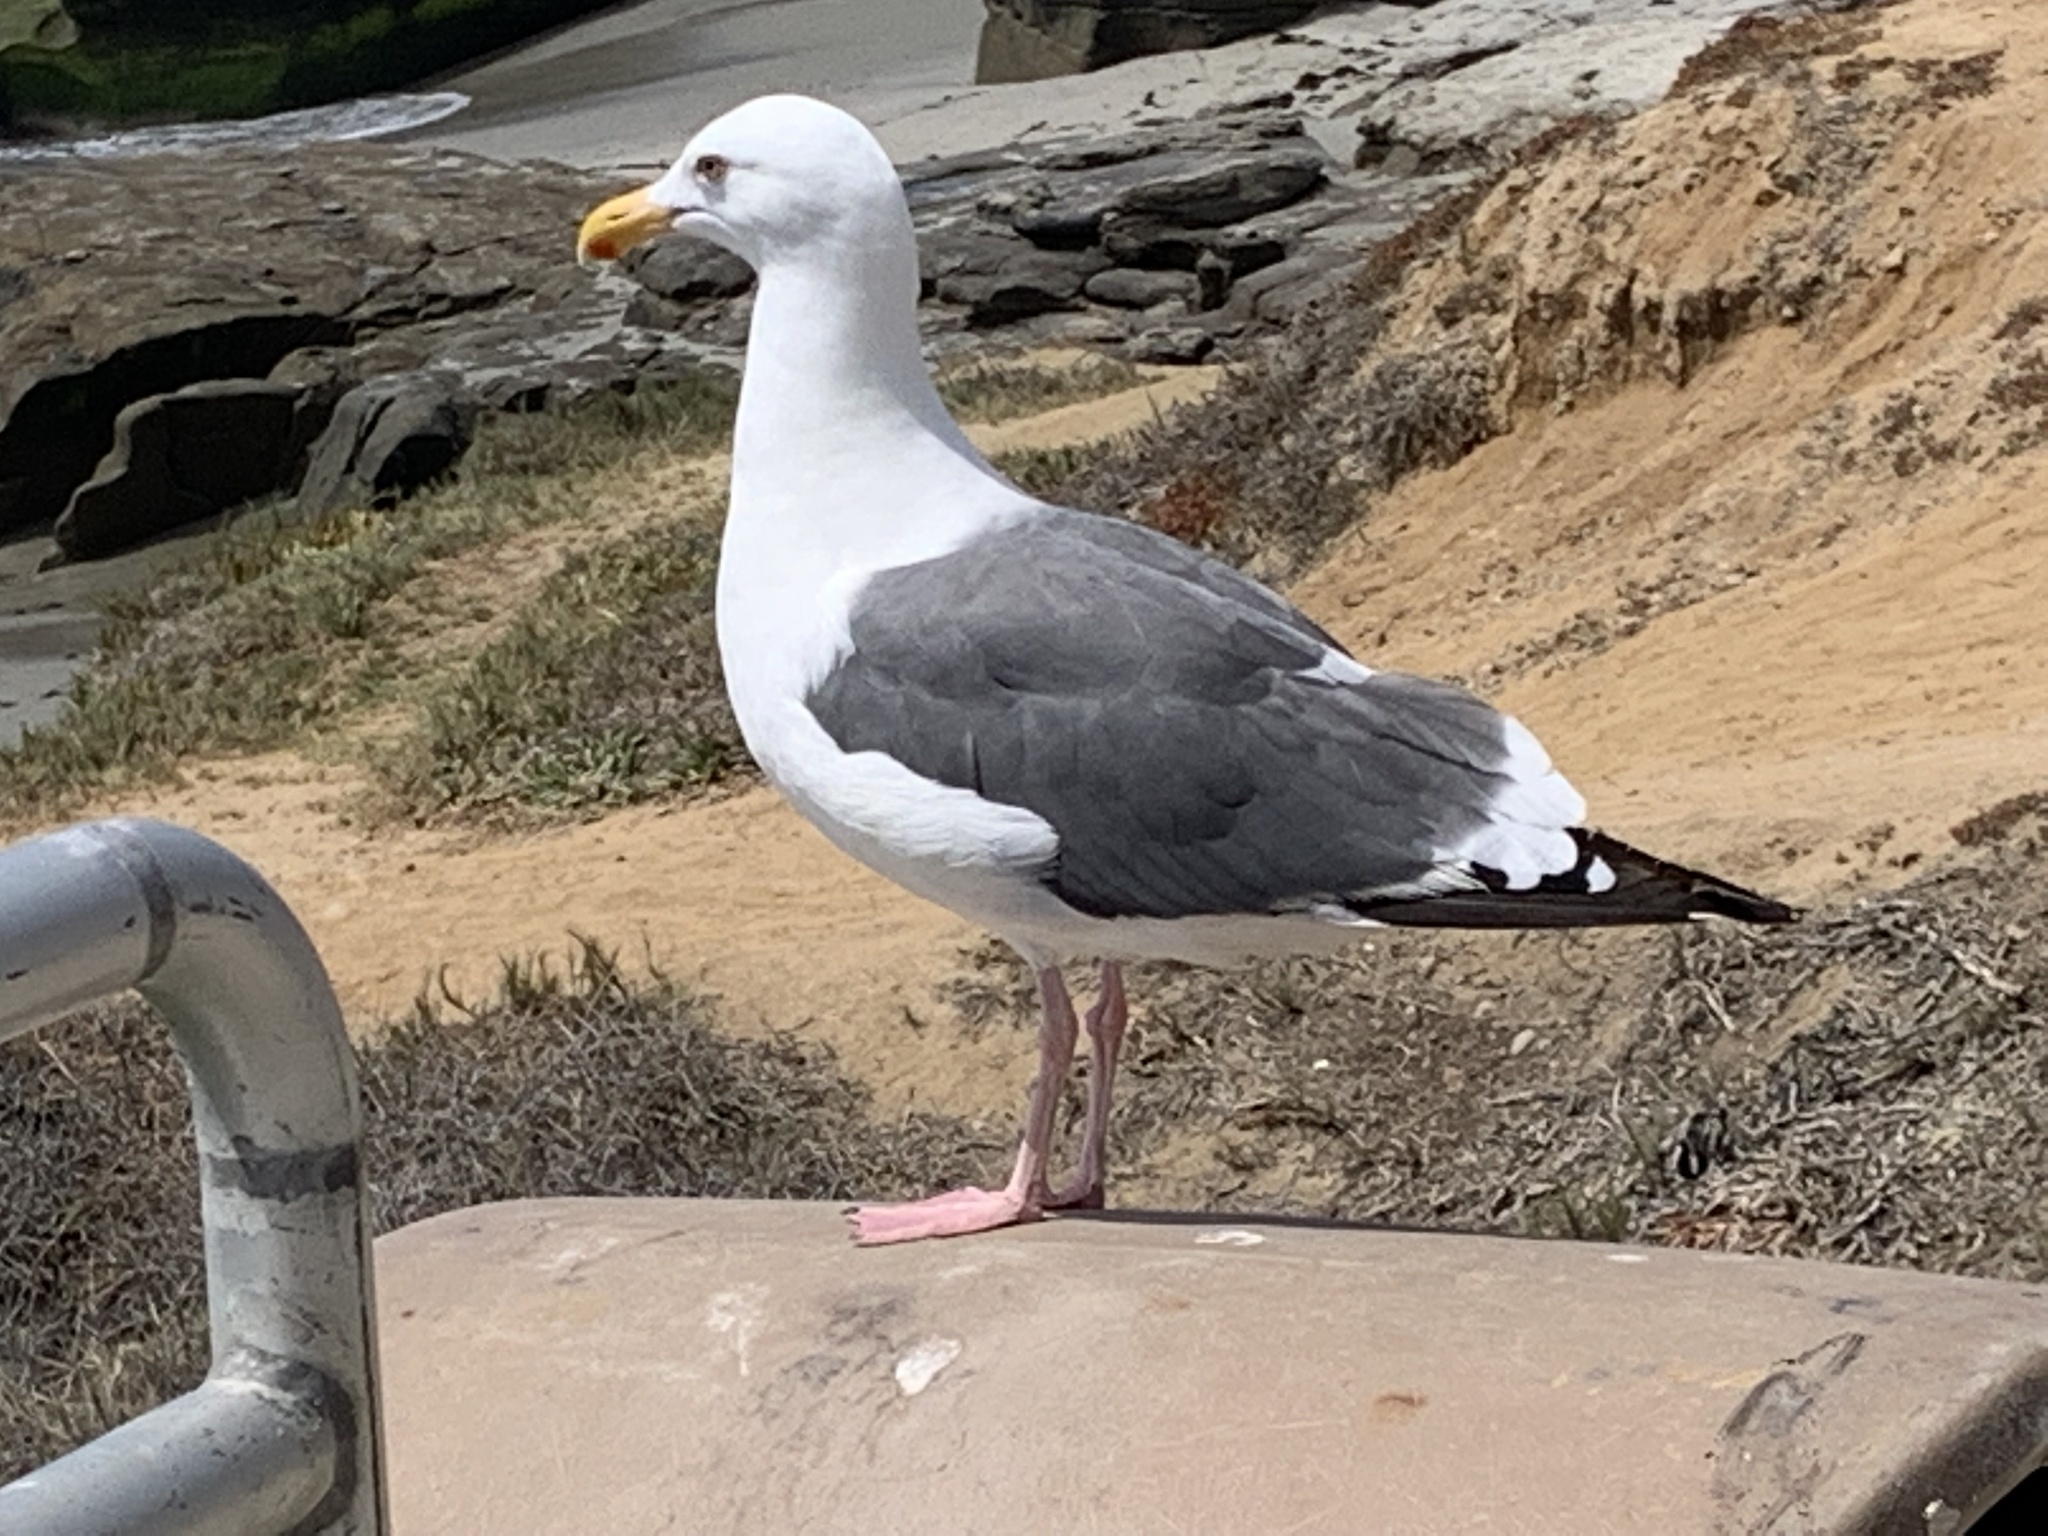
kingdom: Animalia
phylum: Chordata
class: Aves
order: Charadriiformes
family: Laridae
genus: Larus
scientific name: Larus occidentalis
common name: Western gull
